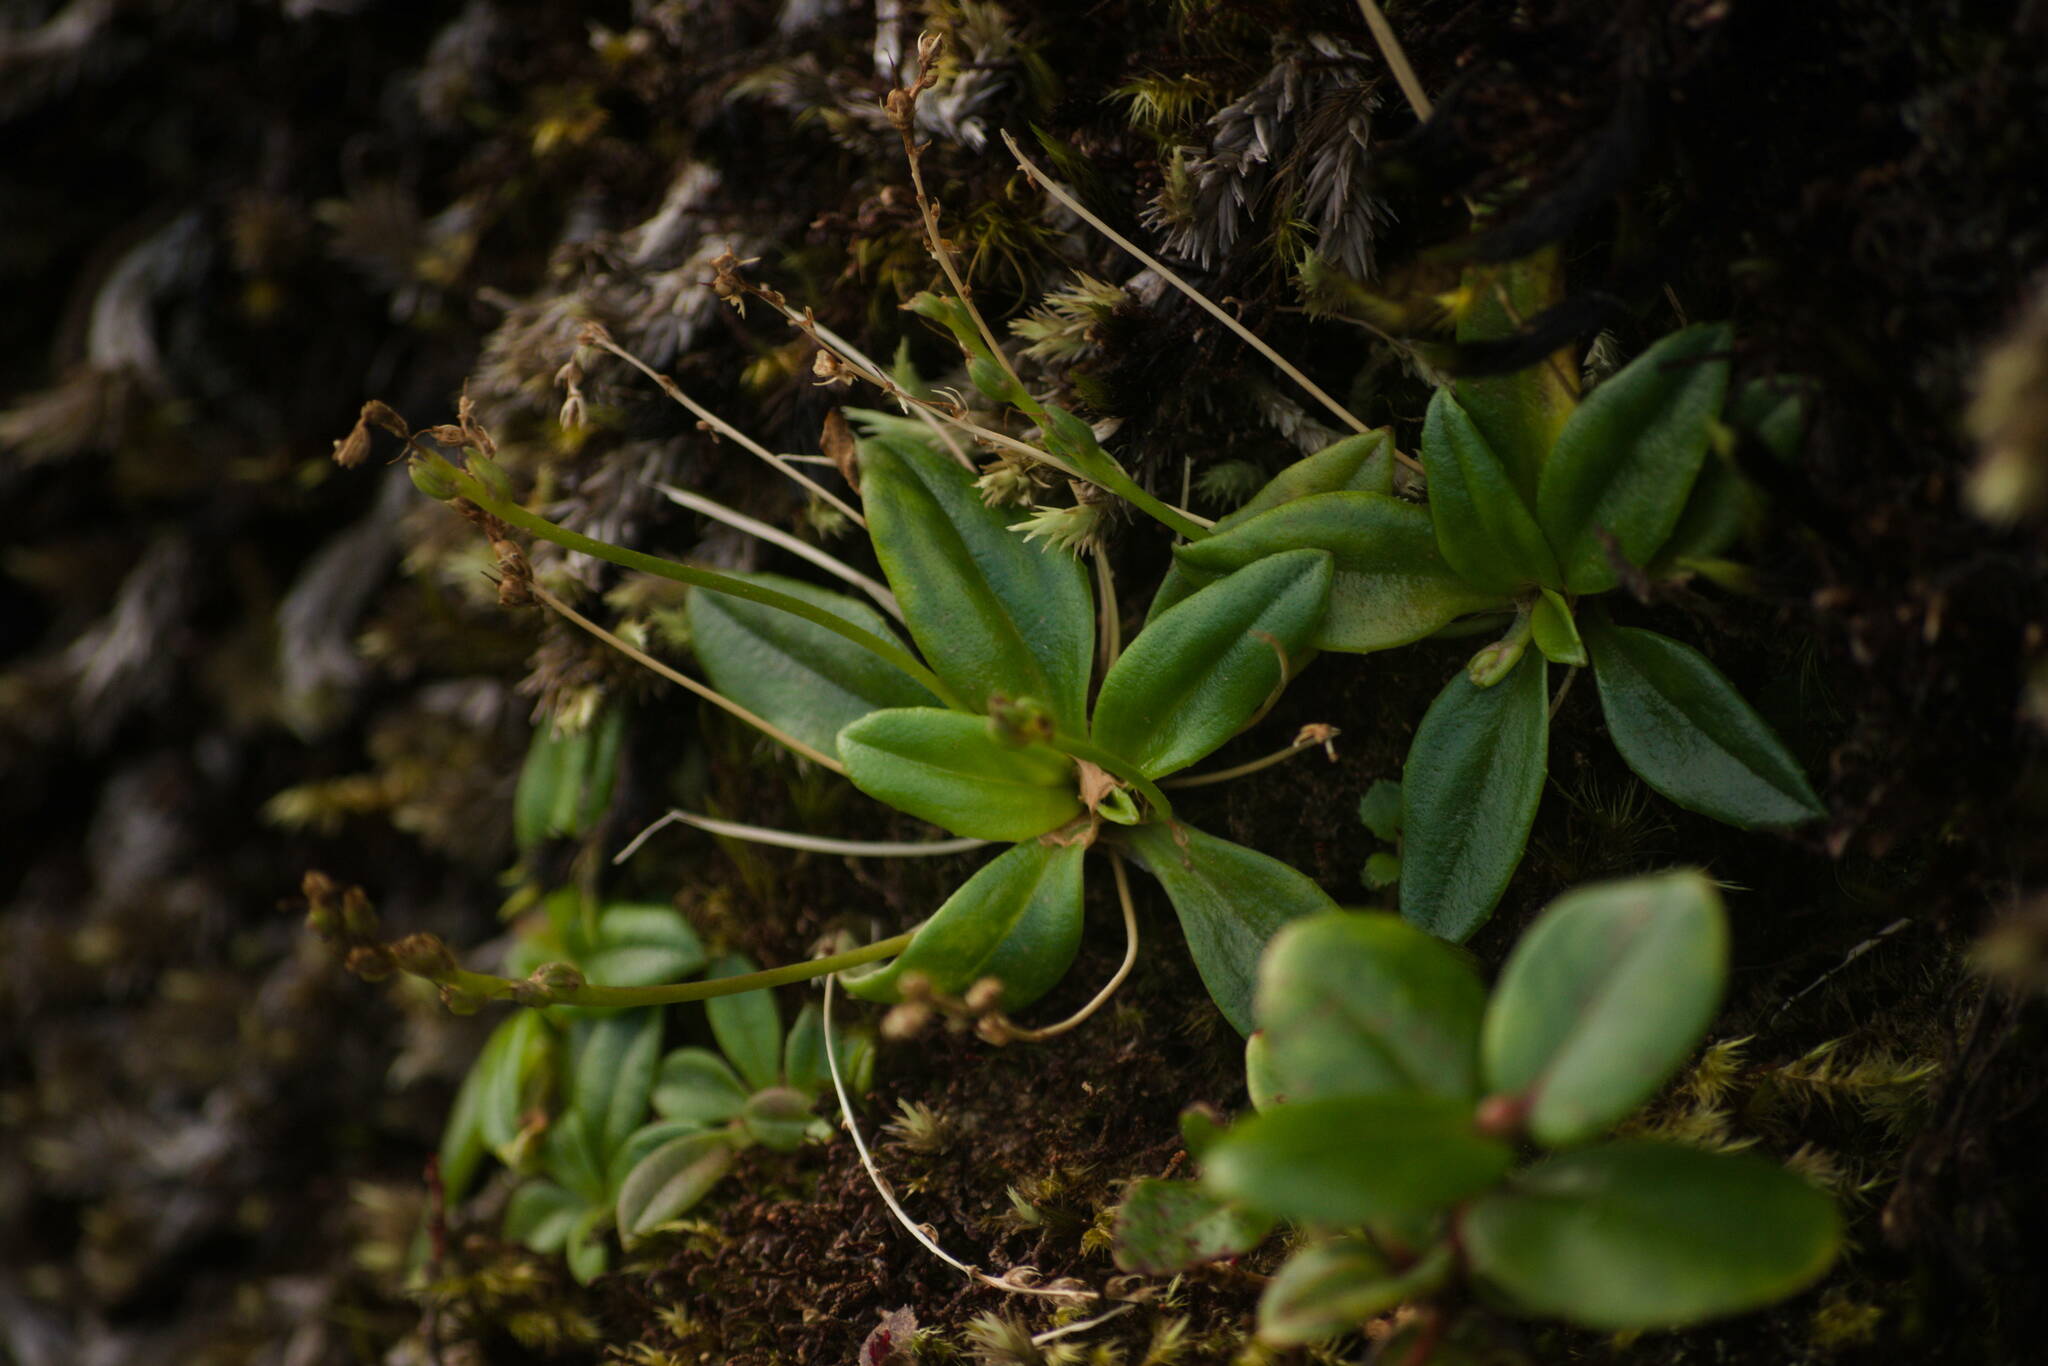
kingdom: Plantae
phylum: Tracheophyta
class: Magnoliopsida
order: Lamiales
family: Plantaginaceae
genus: Plantago
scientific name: Plantago pachyphylla
